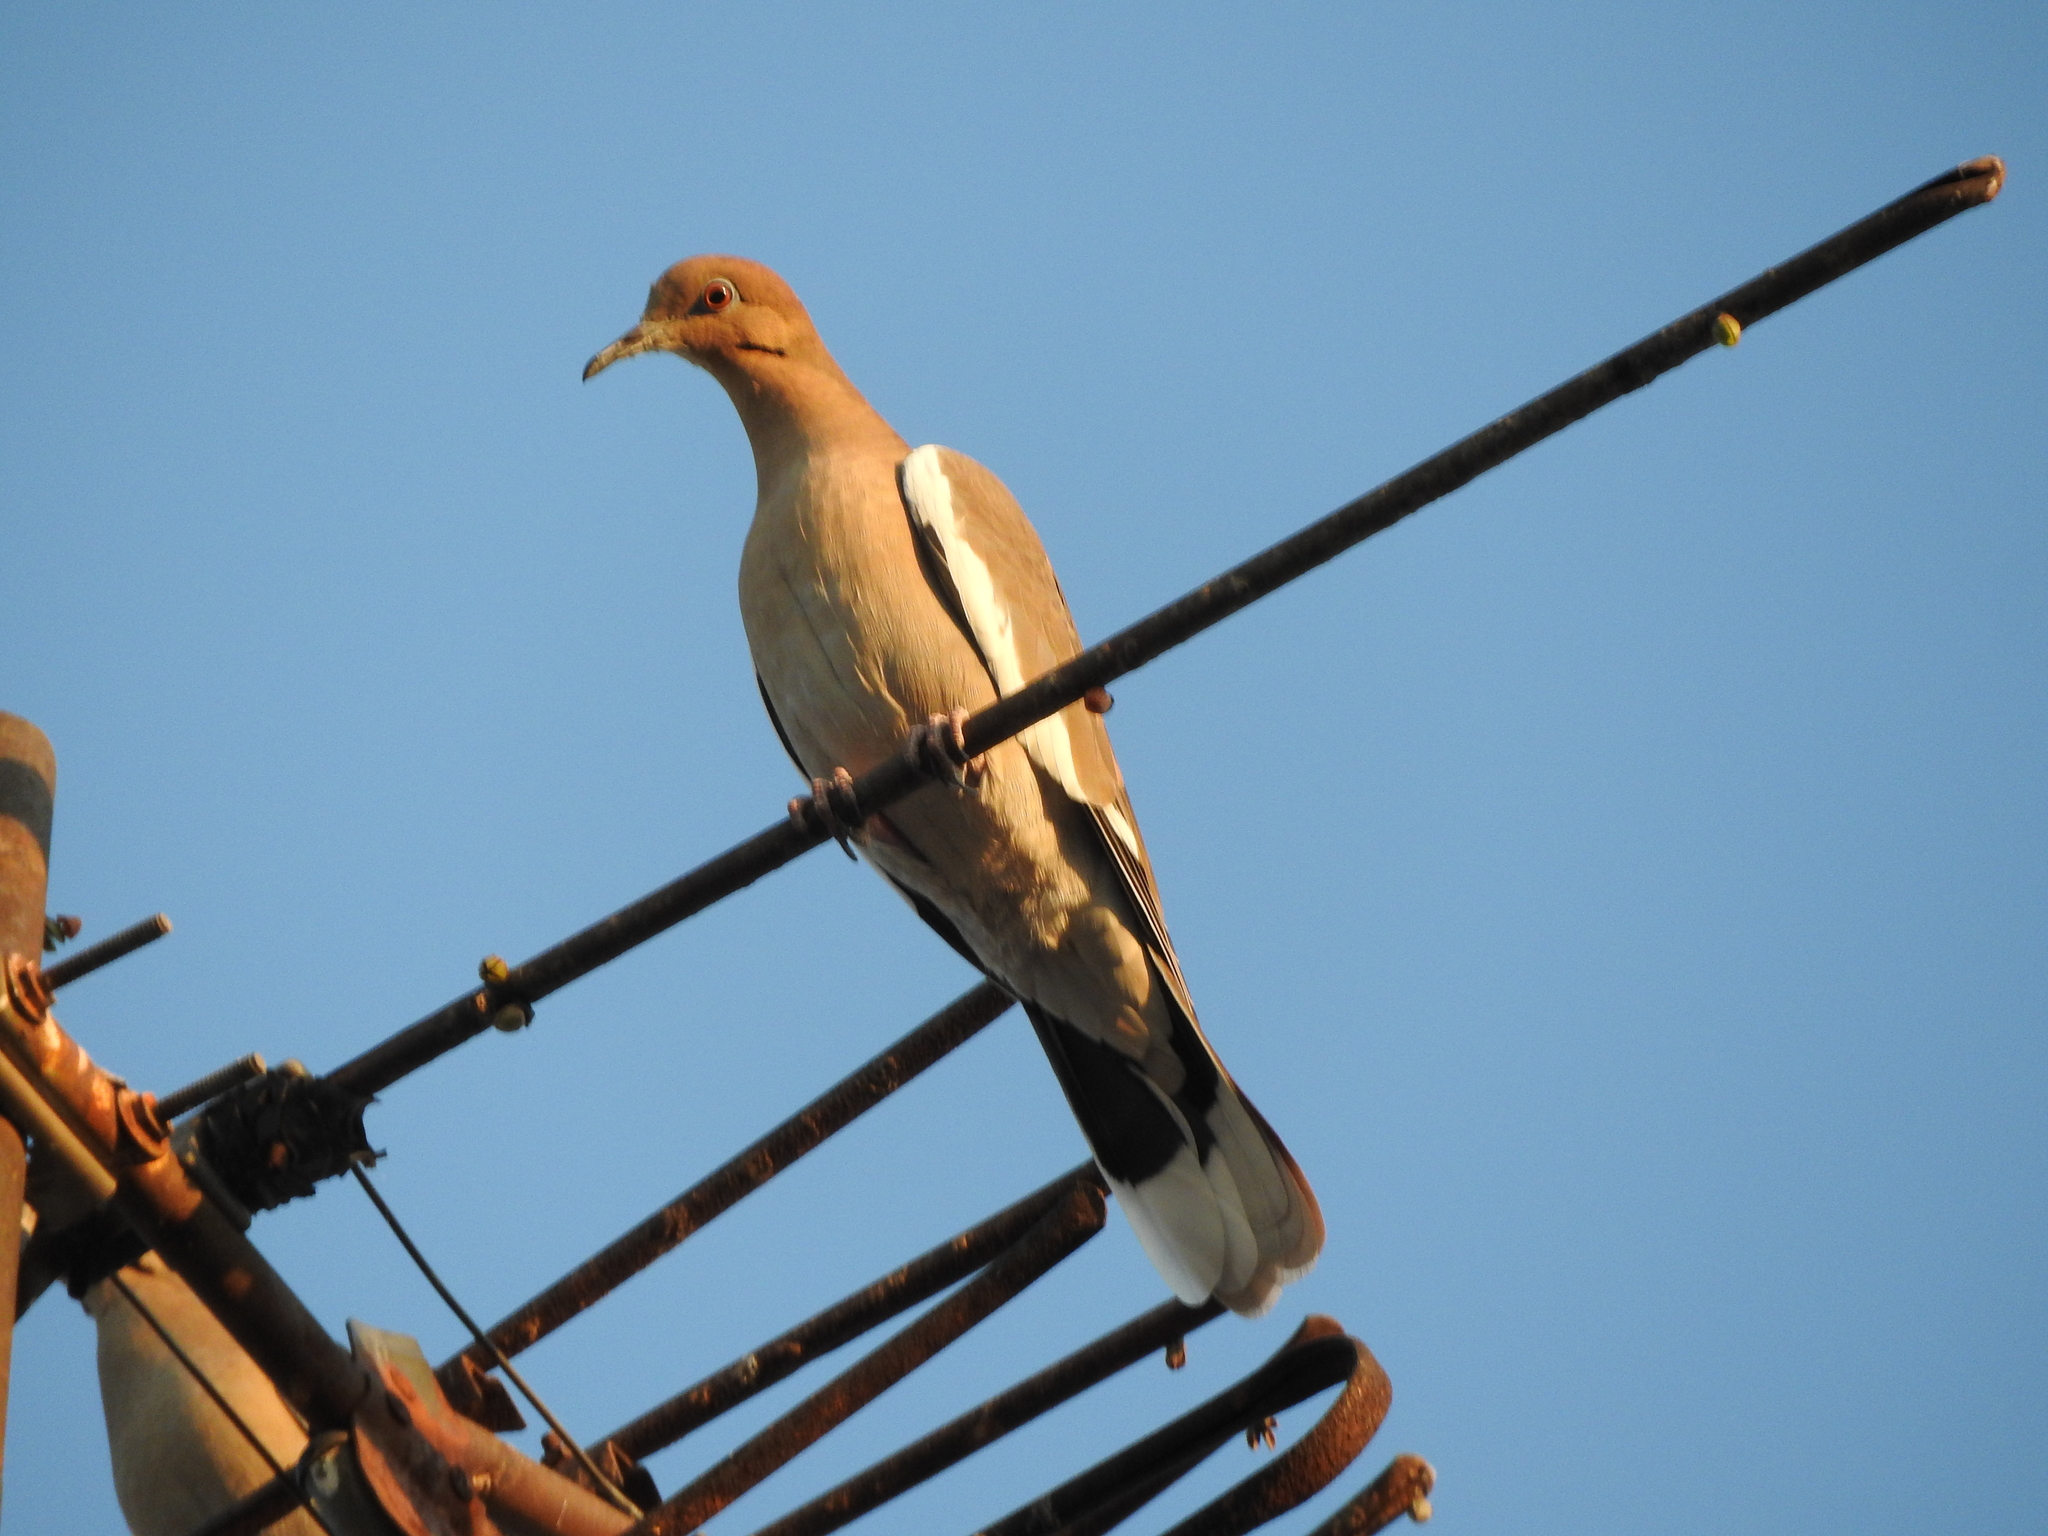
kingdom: Animalia
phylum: Chordata
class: Aves
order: Columbiformes
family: Columbidae
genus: Zenaida
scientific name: Zenaida asiatica
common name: White-winged dove
